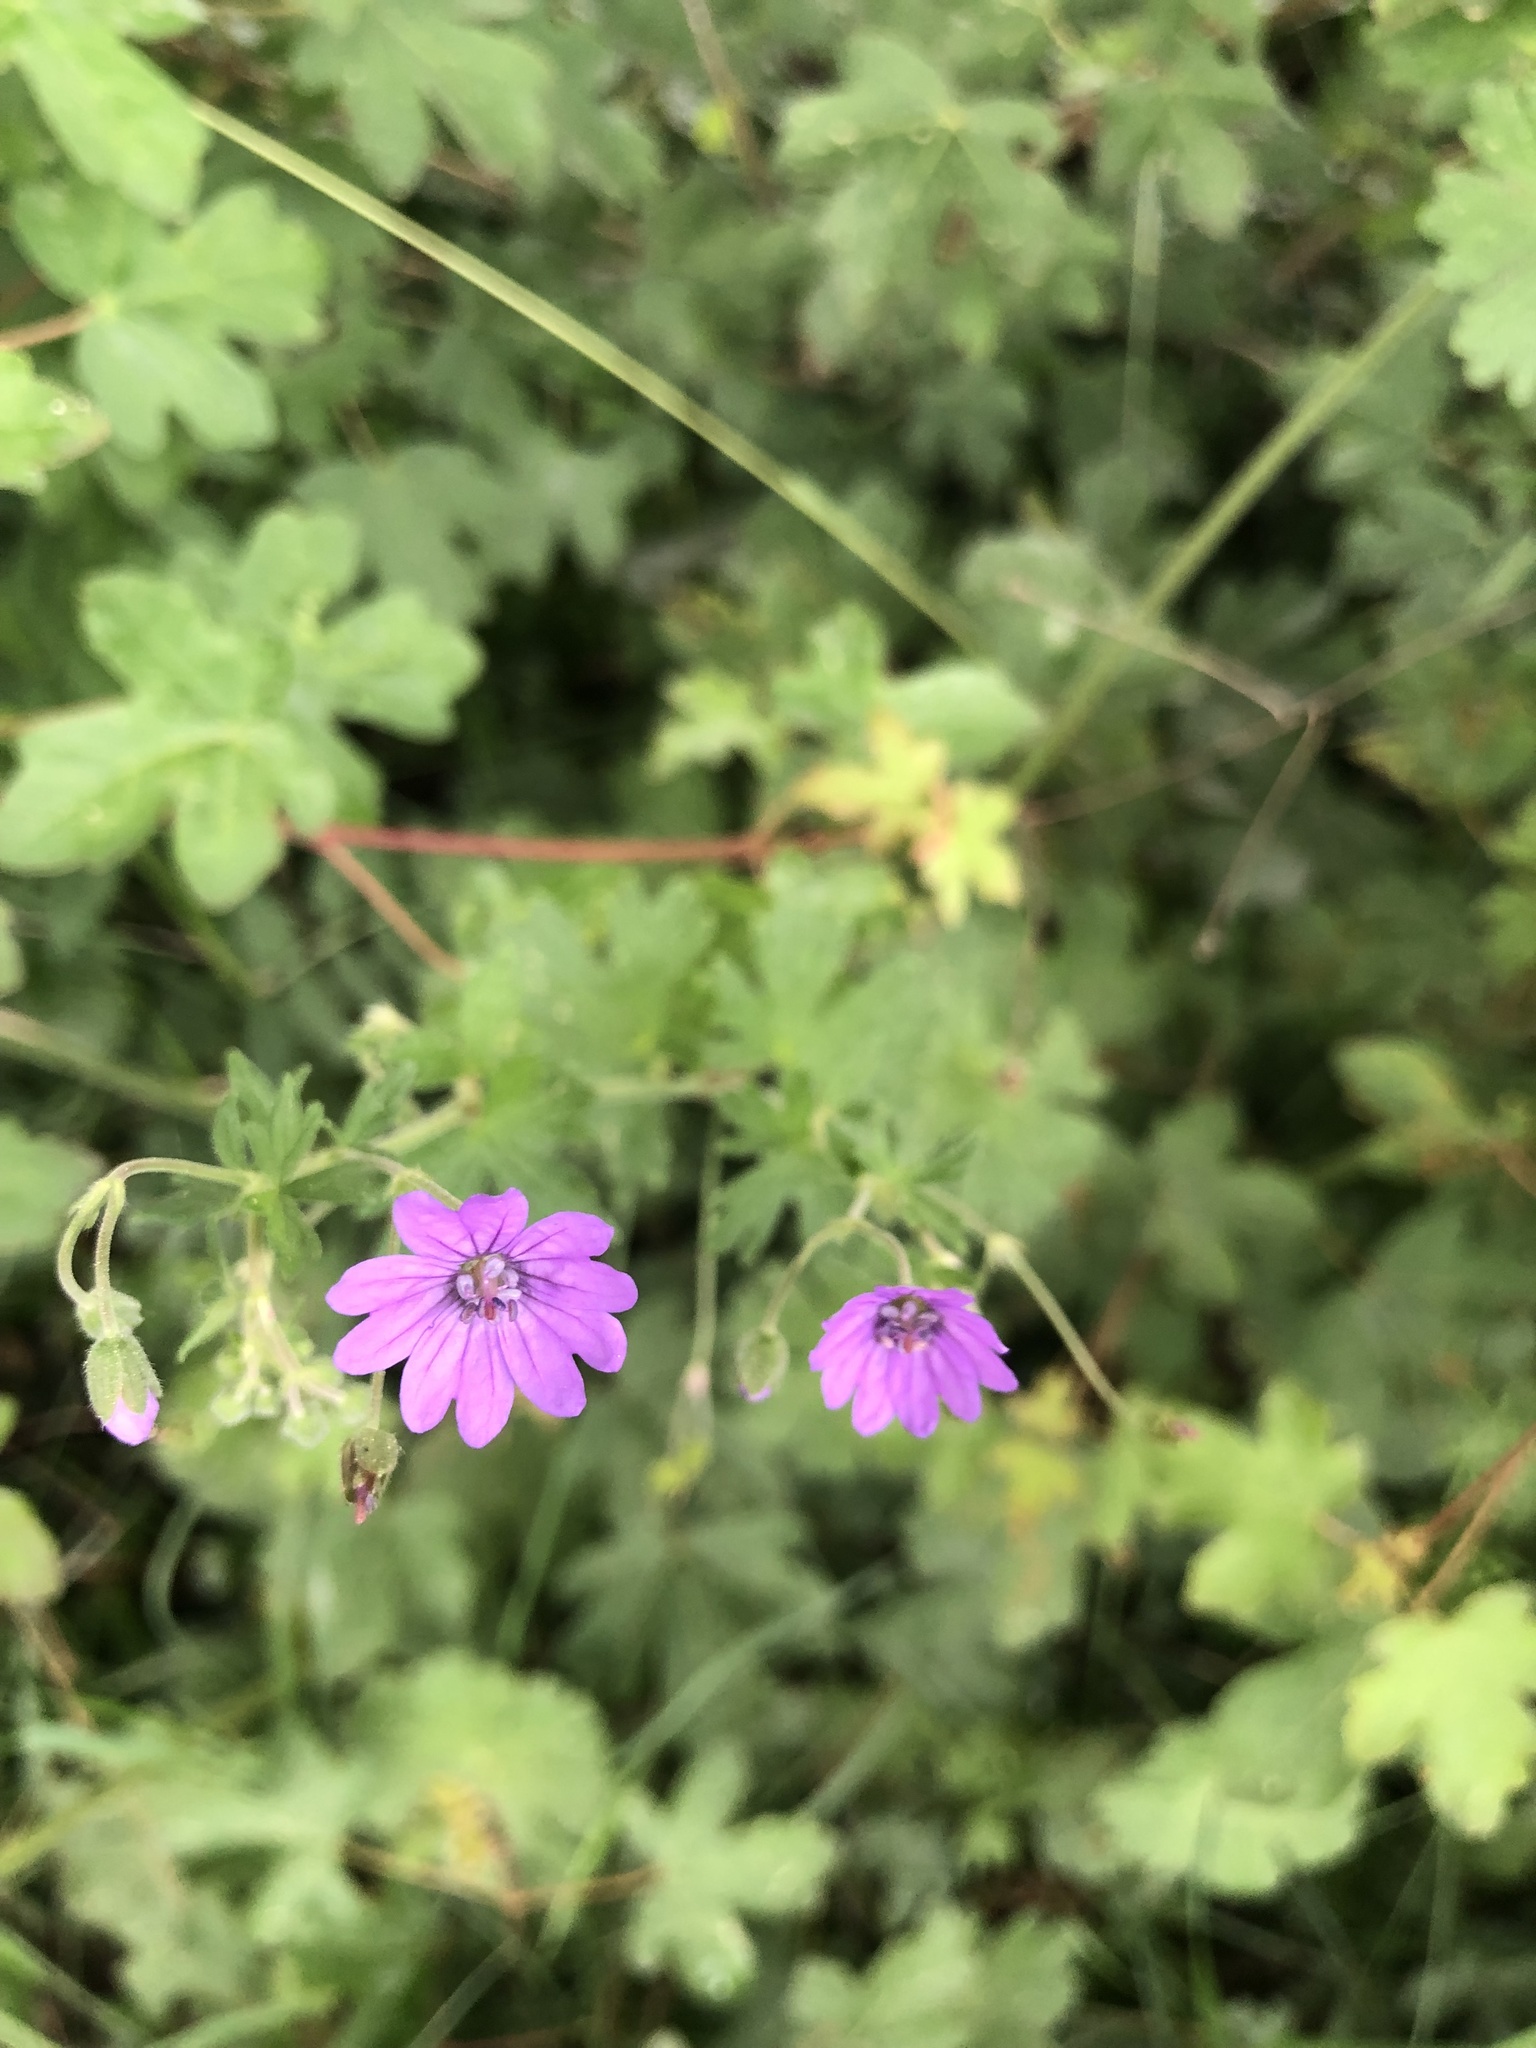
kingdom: Plantae
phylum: Tracheophyta
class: Magnoliopsida
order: Geraniales
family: Geraniaceae
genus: Geranium
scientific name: Geranium pyrenaicum
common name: Hedgerow crane's-bill
